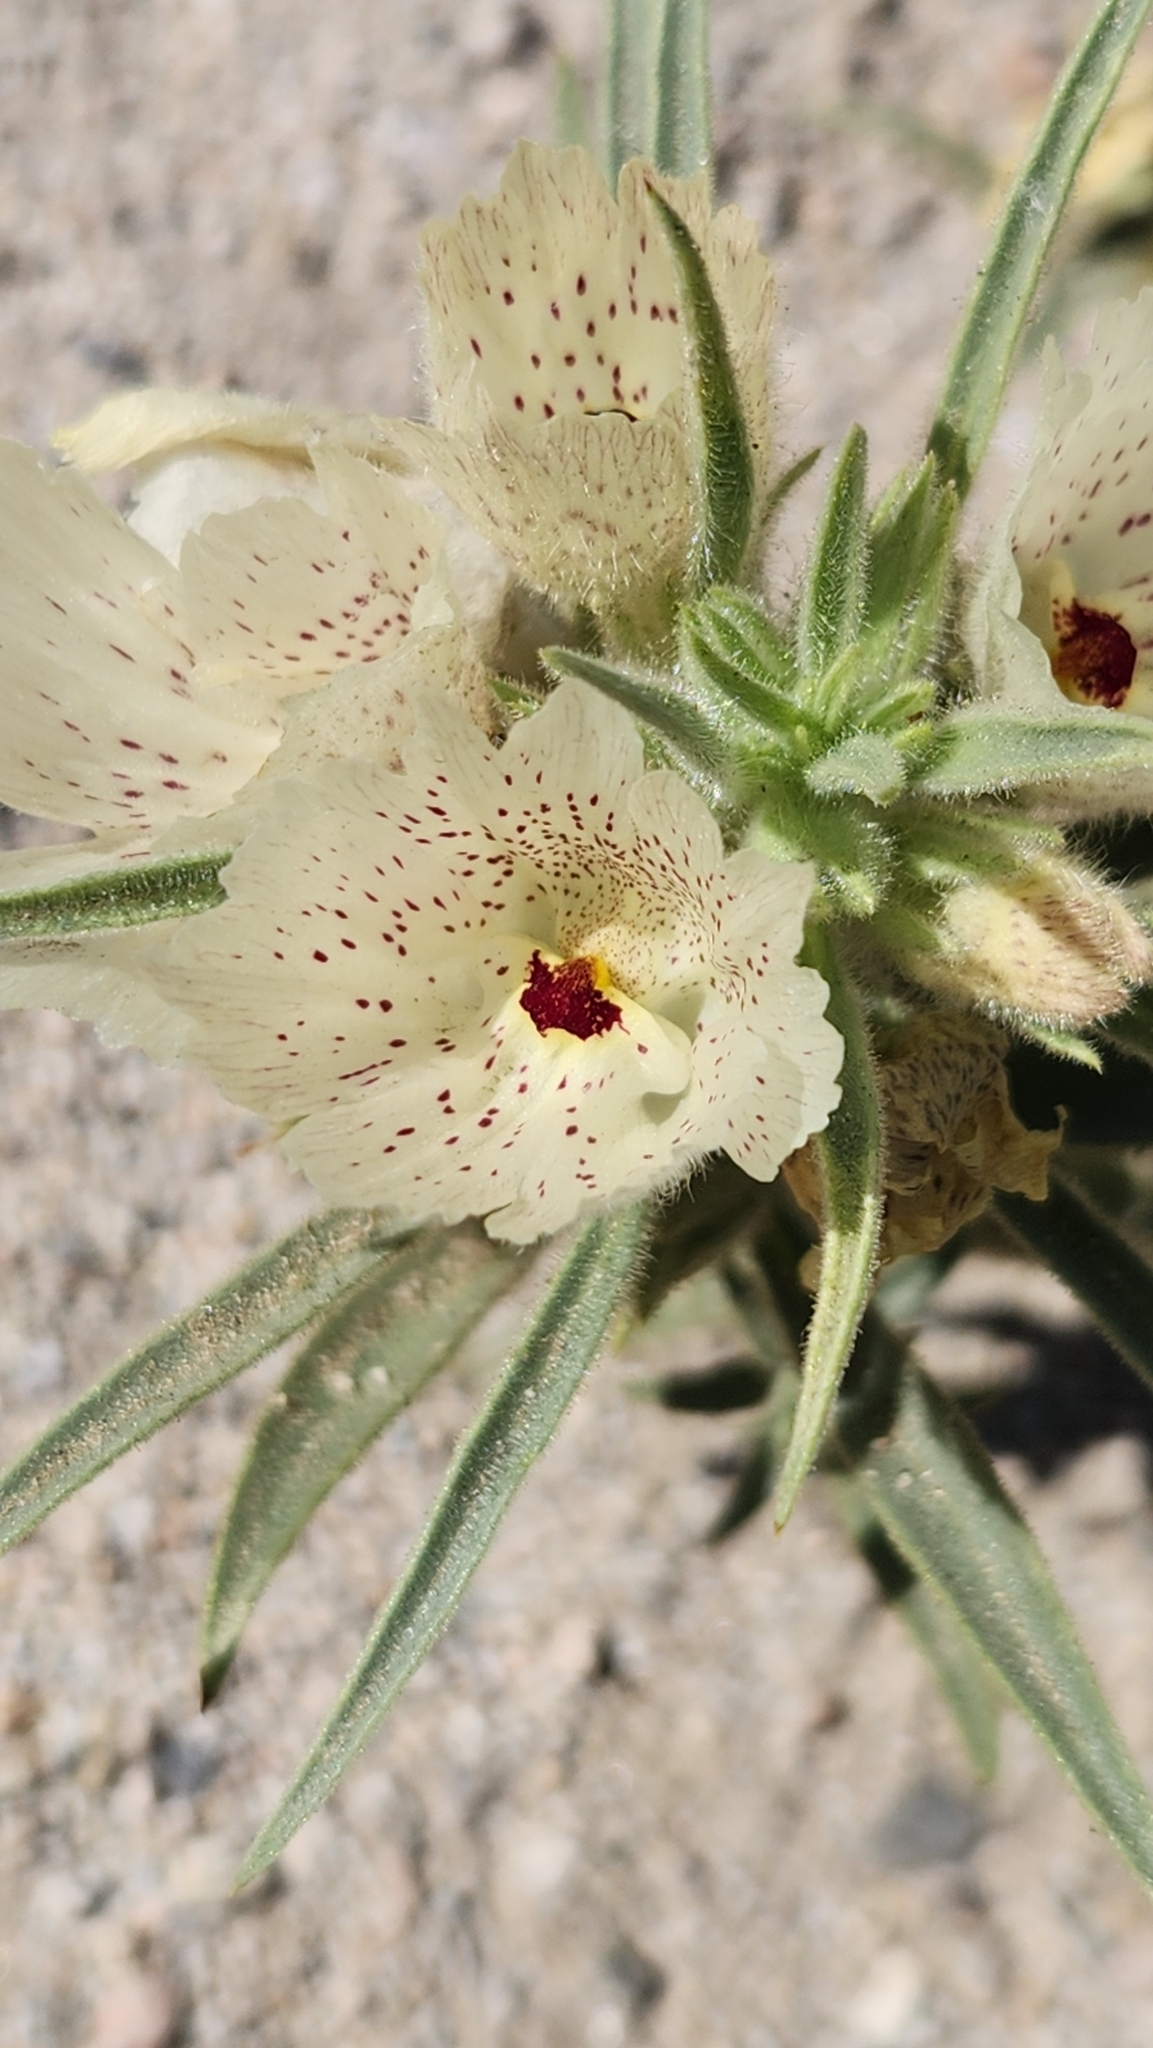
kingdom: Plantae
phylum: Tracheophyta
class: Magnoliopsida
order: Lamiales
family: Plantaginaceae
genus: Mohavea
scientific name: Mohavea confertiflora
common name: Ghost flower
